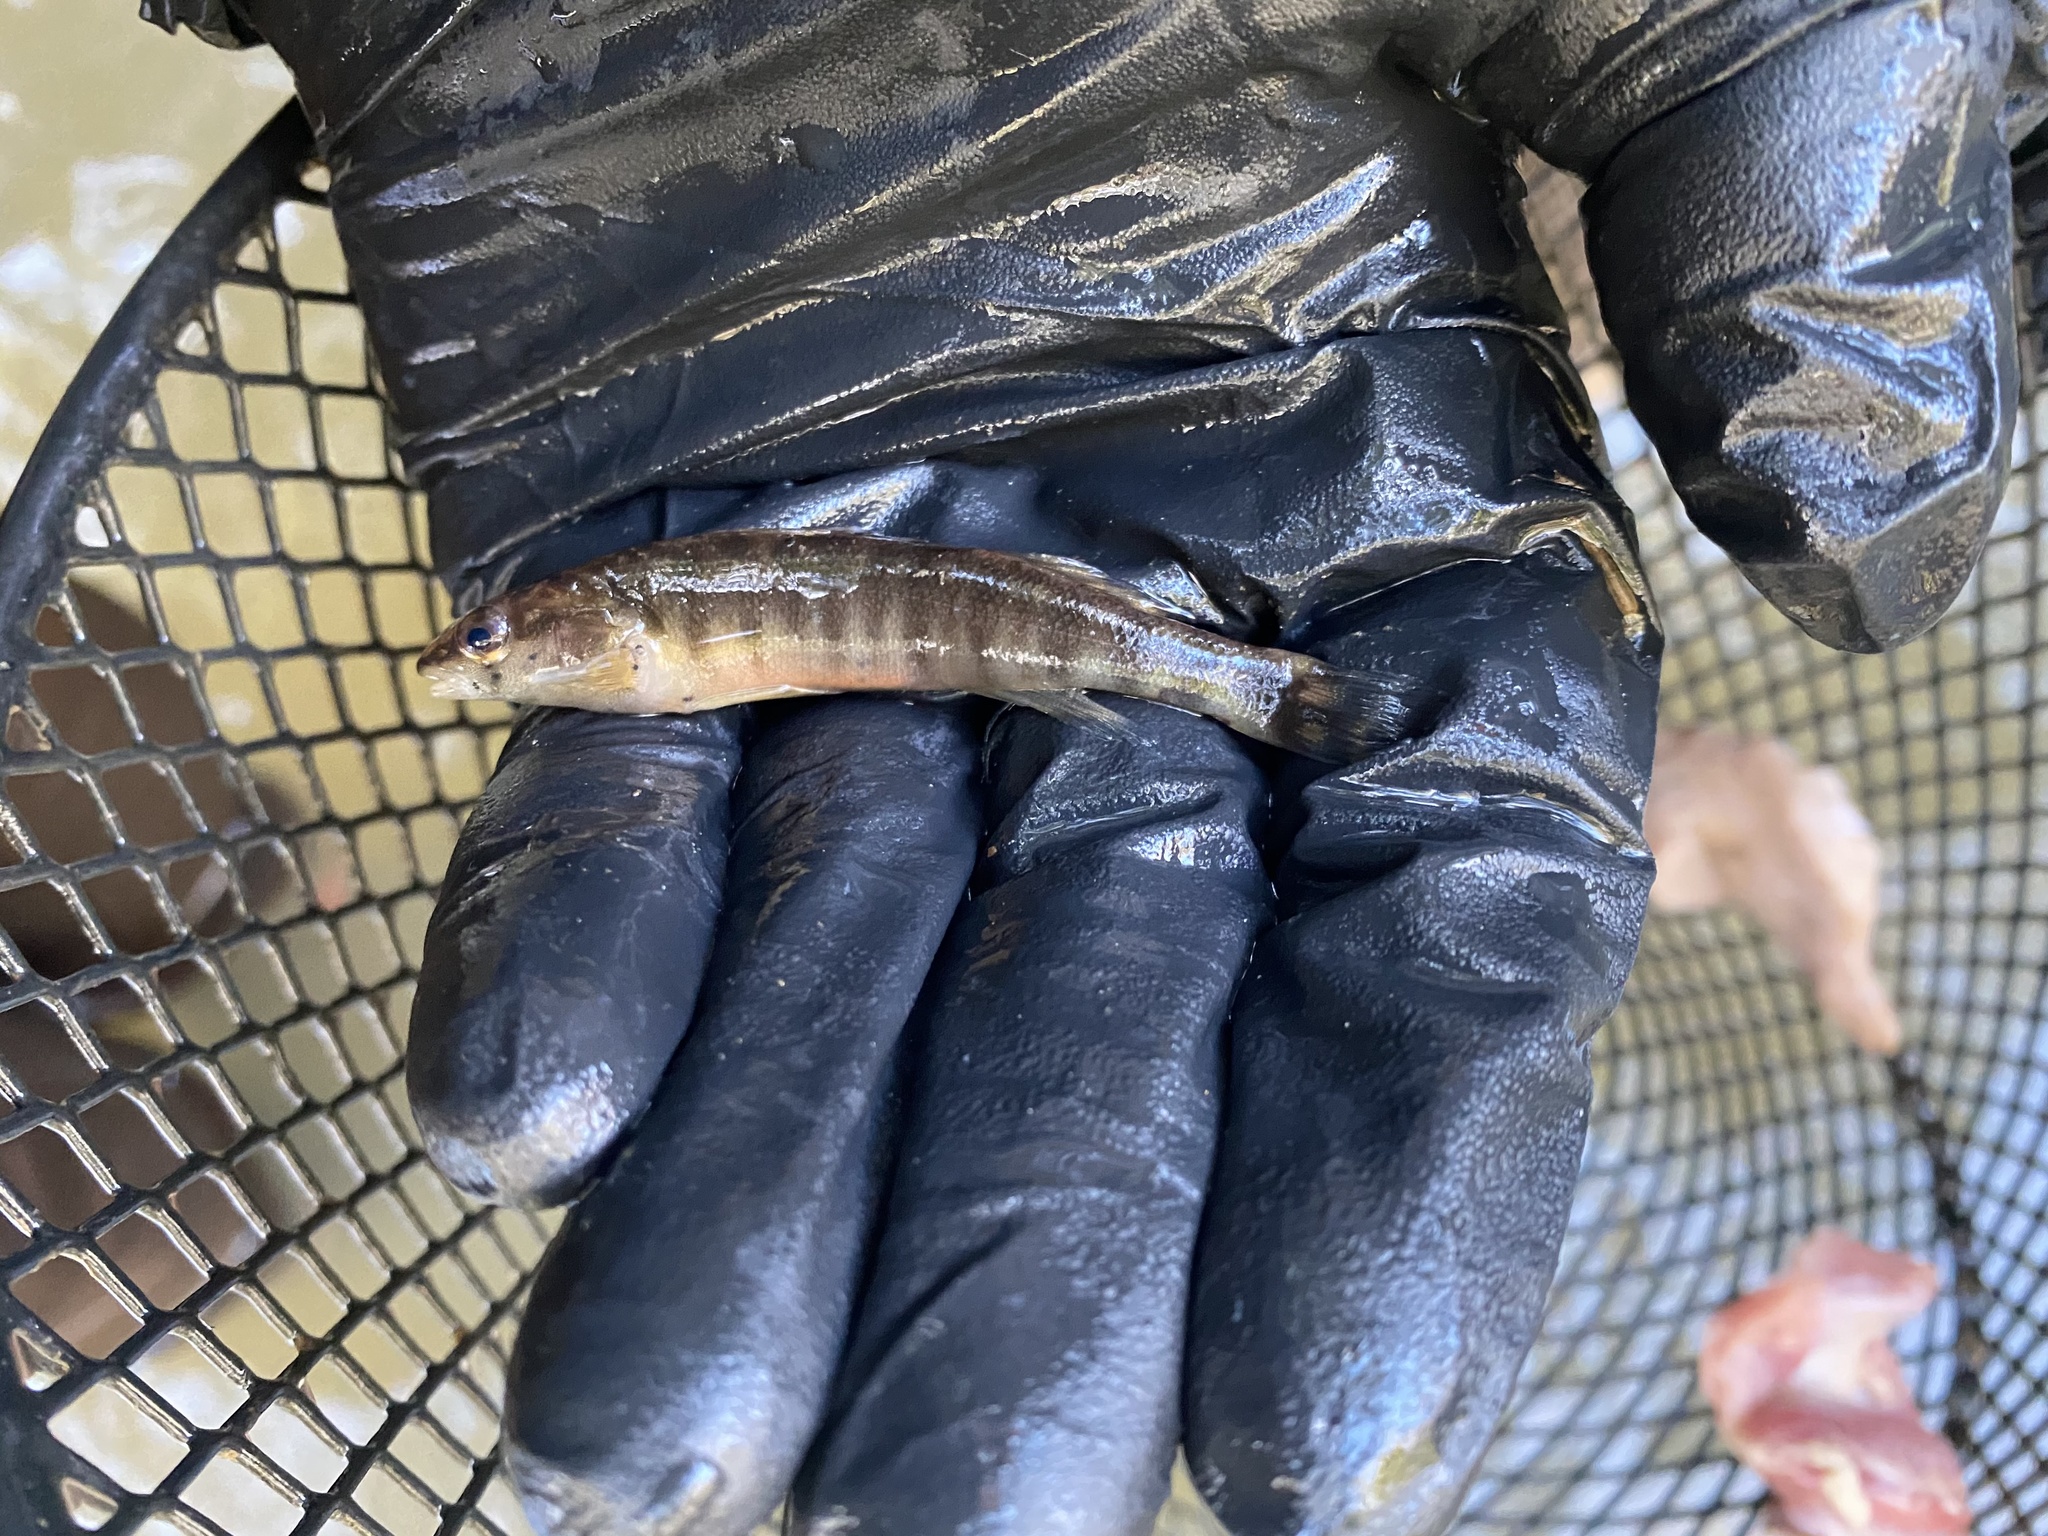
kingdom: Animalia
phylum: Chordata
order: Perciformes
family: Percidae
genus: Percina
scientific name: Percina nigrofasciata
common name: Blackbanded darter
